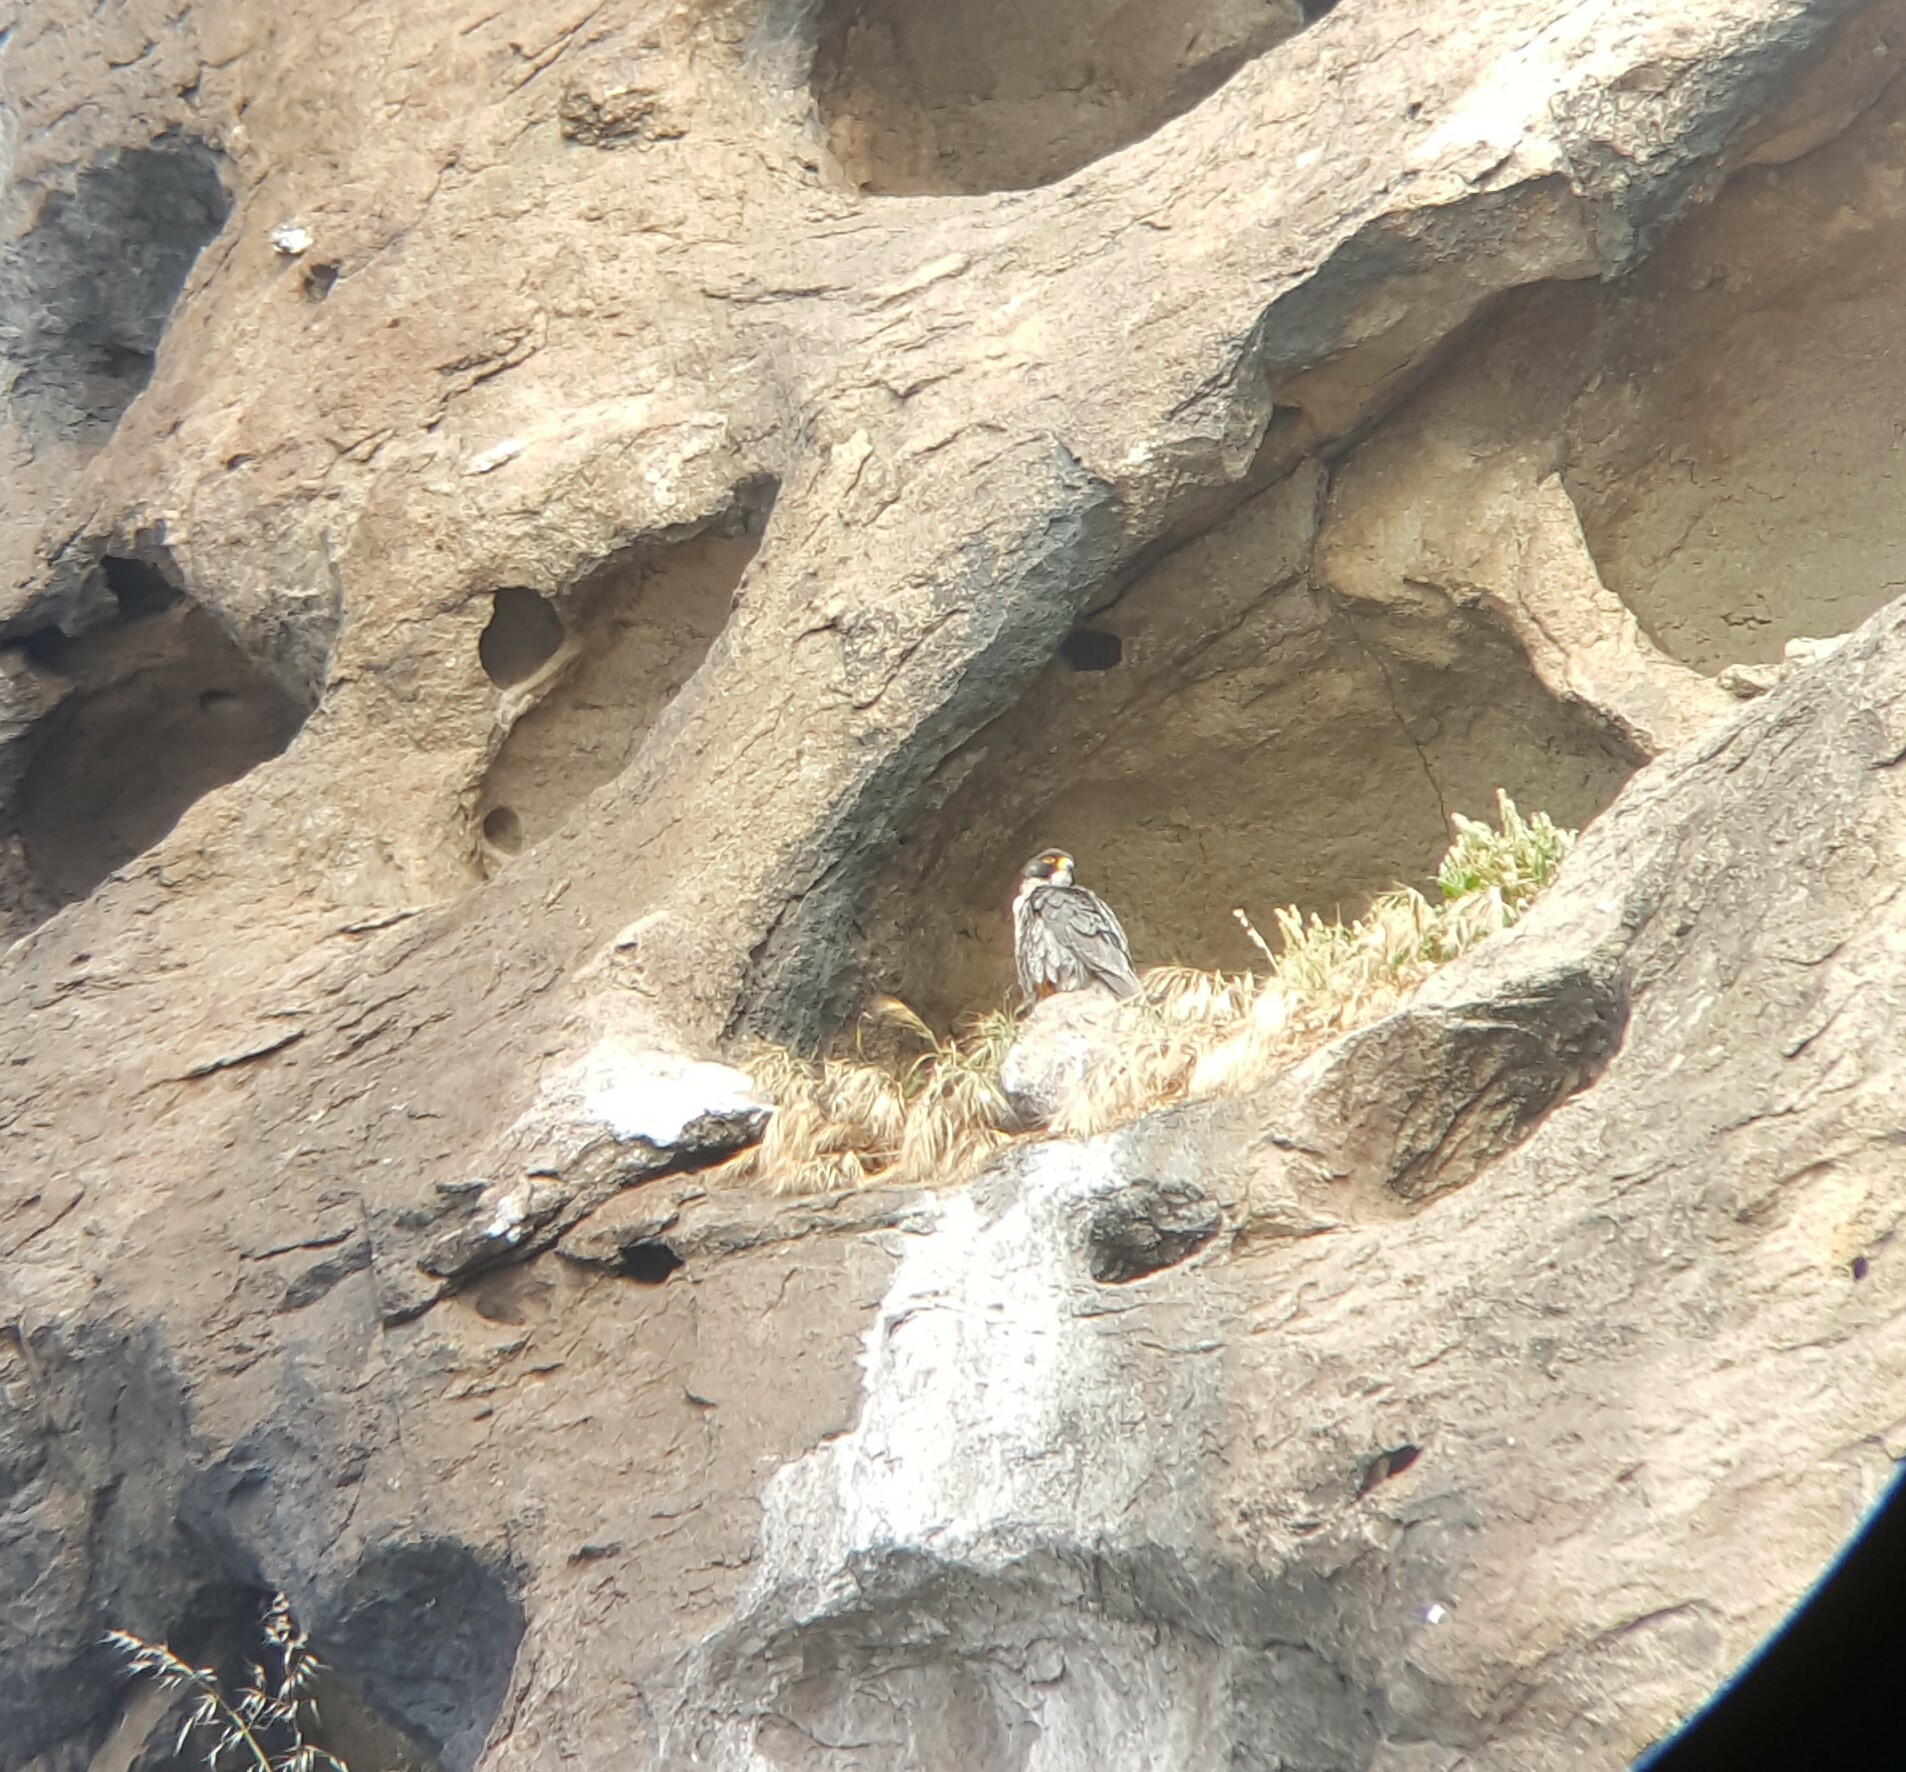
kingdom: Animalia
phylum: Chordata
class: Aves
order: Falconiformes
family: Falconidae
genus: Falco
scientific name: Falco peregrinus
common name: Peregrine falcon
